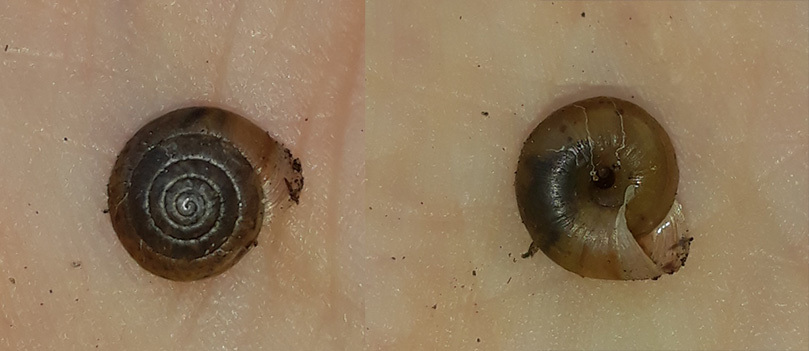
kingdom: Animalia
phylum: Mollusca
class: Gastropoda
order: Stylommatophora
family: Hygromiidae
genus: Trochulus
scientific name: Trochulus hispidus
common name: Hairy snail
